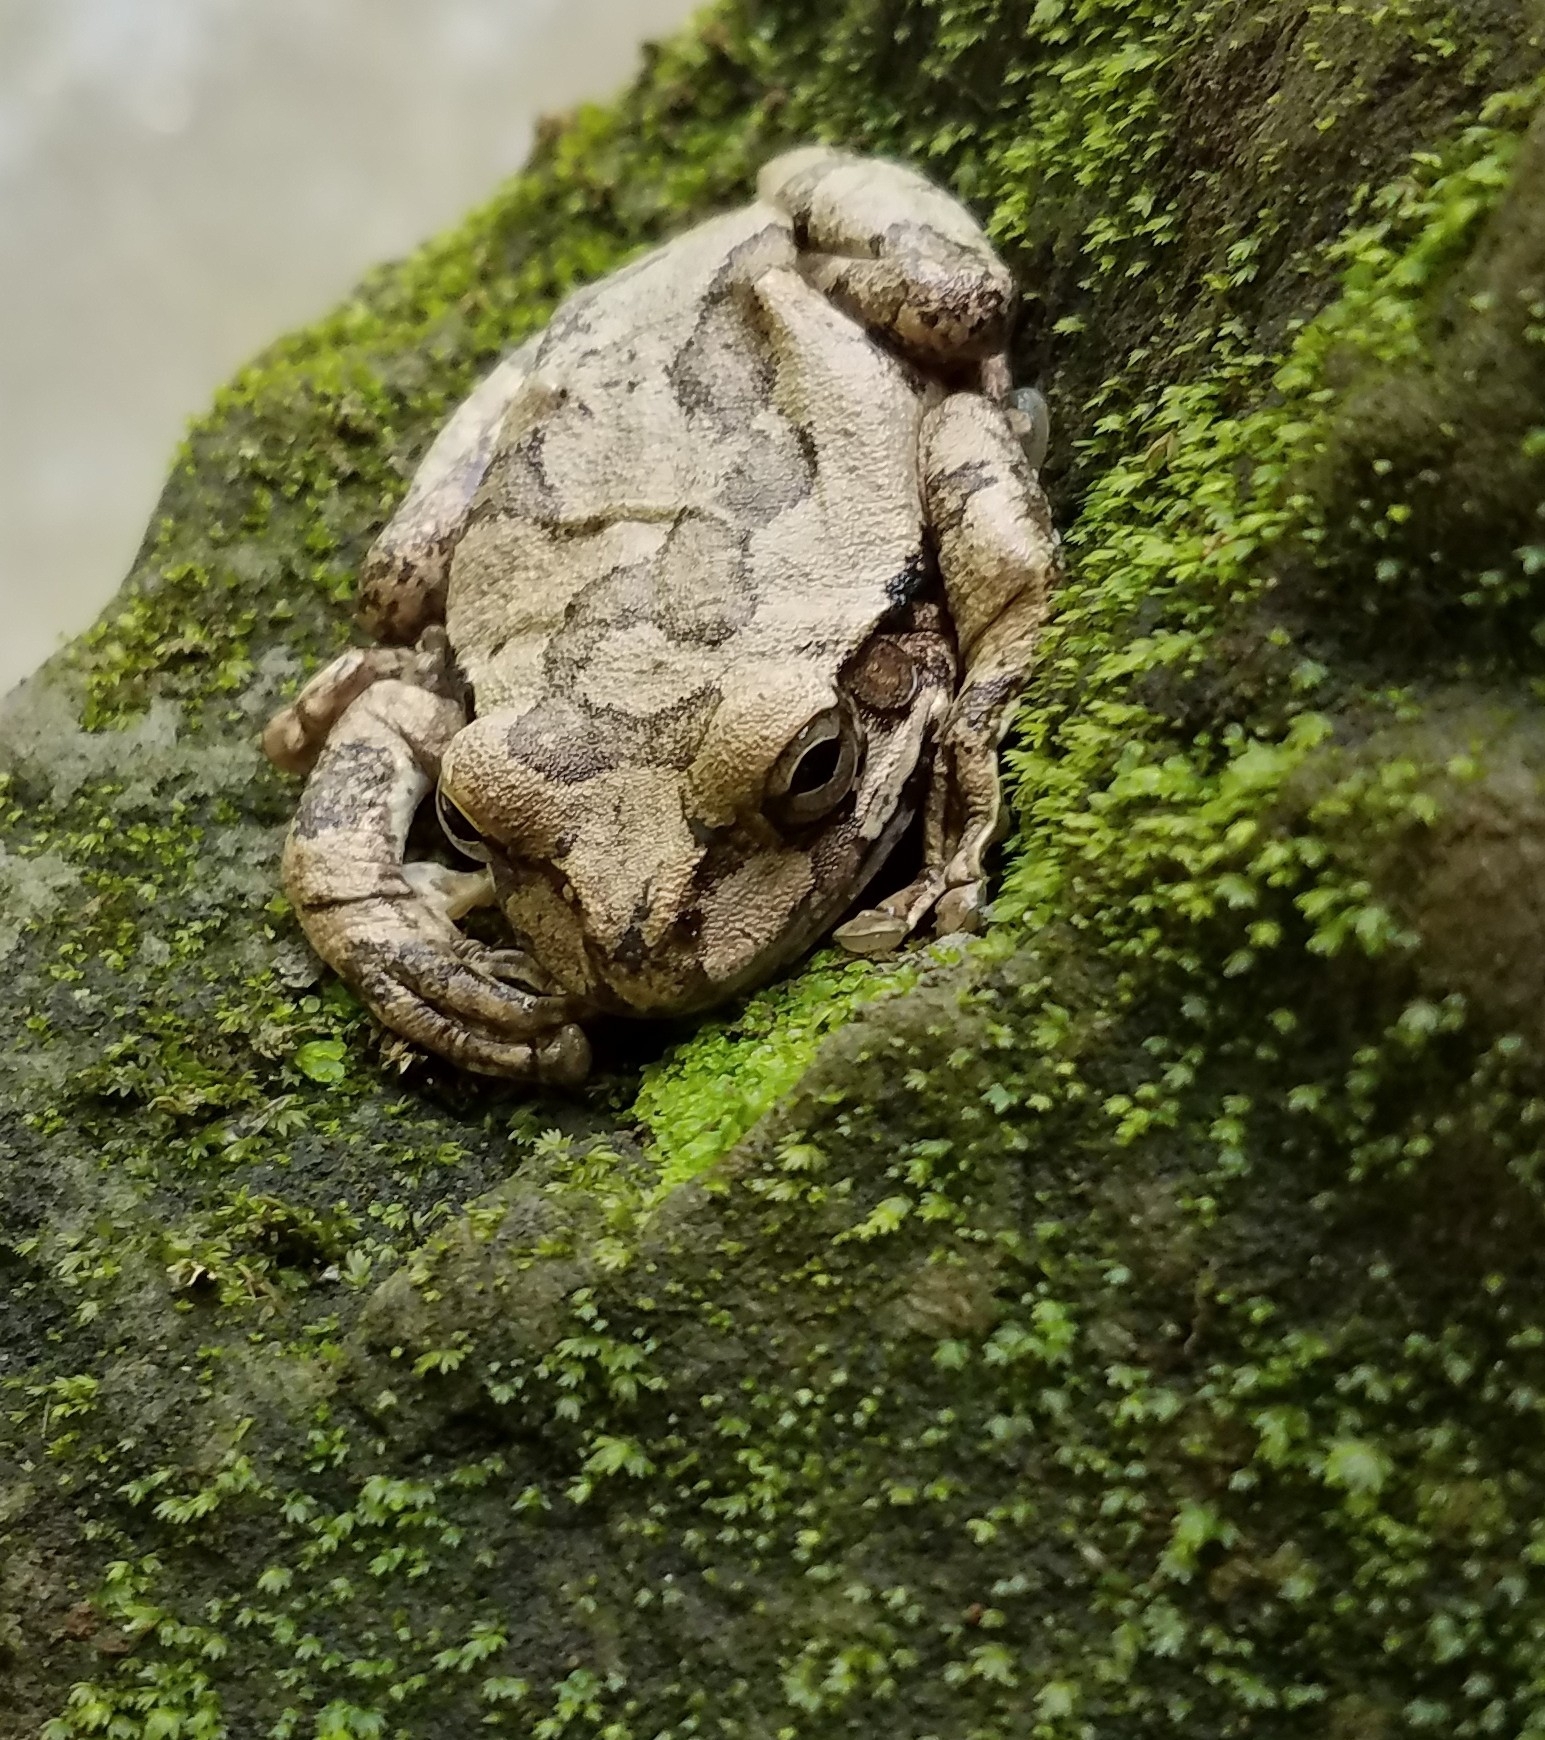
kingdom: Animalia
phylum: Chordata
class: Amphibia
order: Anura
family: Hylidae
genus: Smilisca
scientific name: Smilisca baudinii
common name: Mexican smilisca
